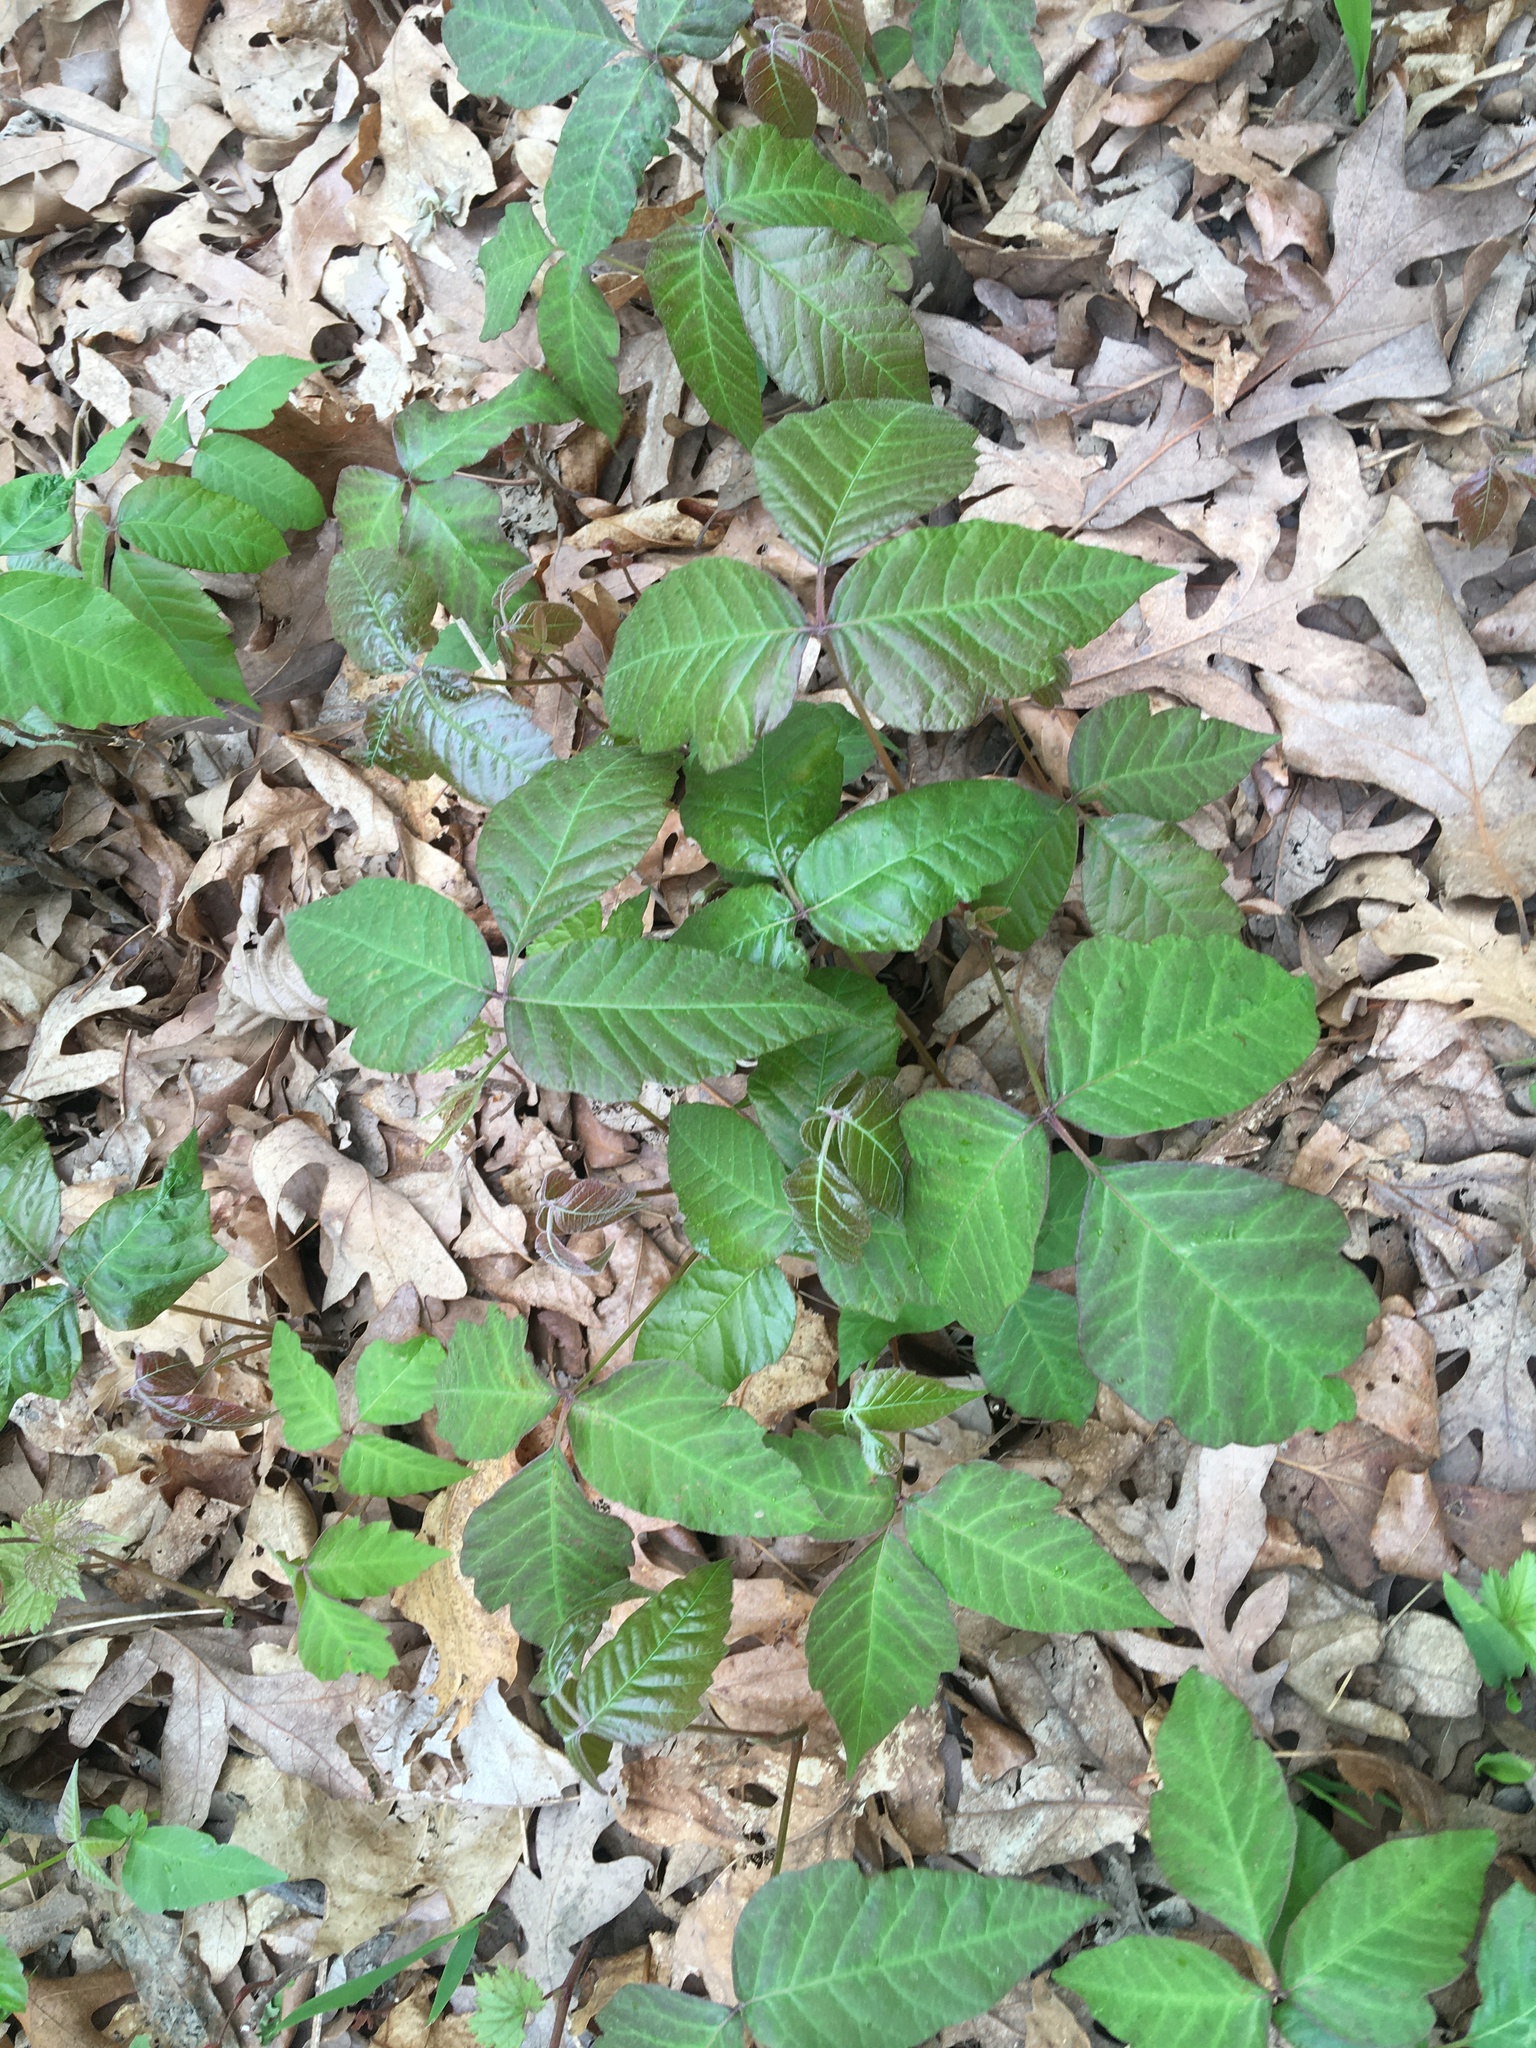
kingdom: Plantae
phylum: Tracheophyta
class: Magnoliopsida
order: Sapindales
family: Anacardiaceae
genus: Toxicodendron
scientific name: Toxicodendron radicans
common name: Poison ivy
